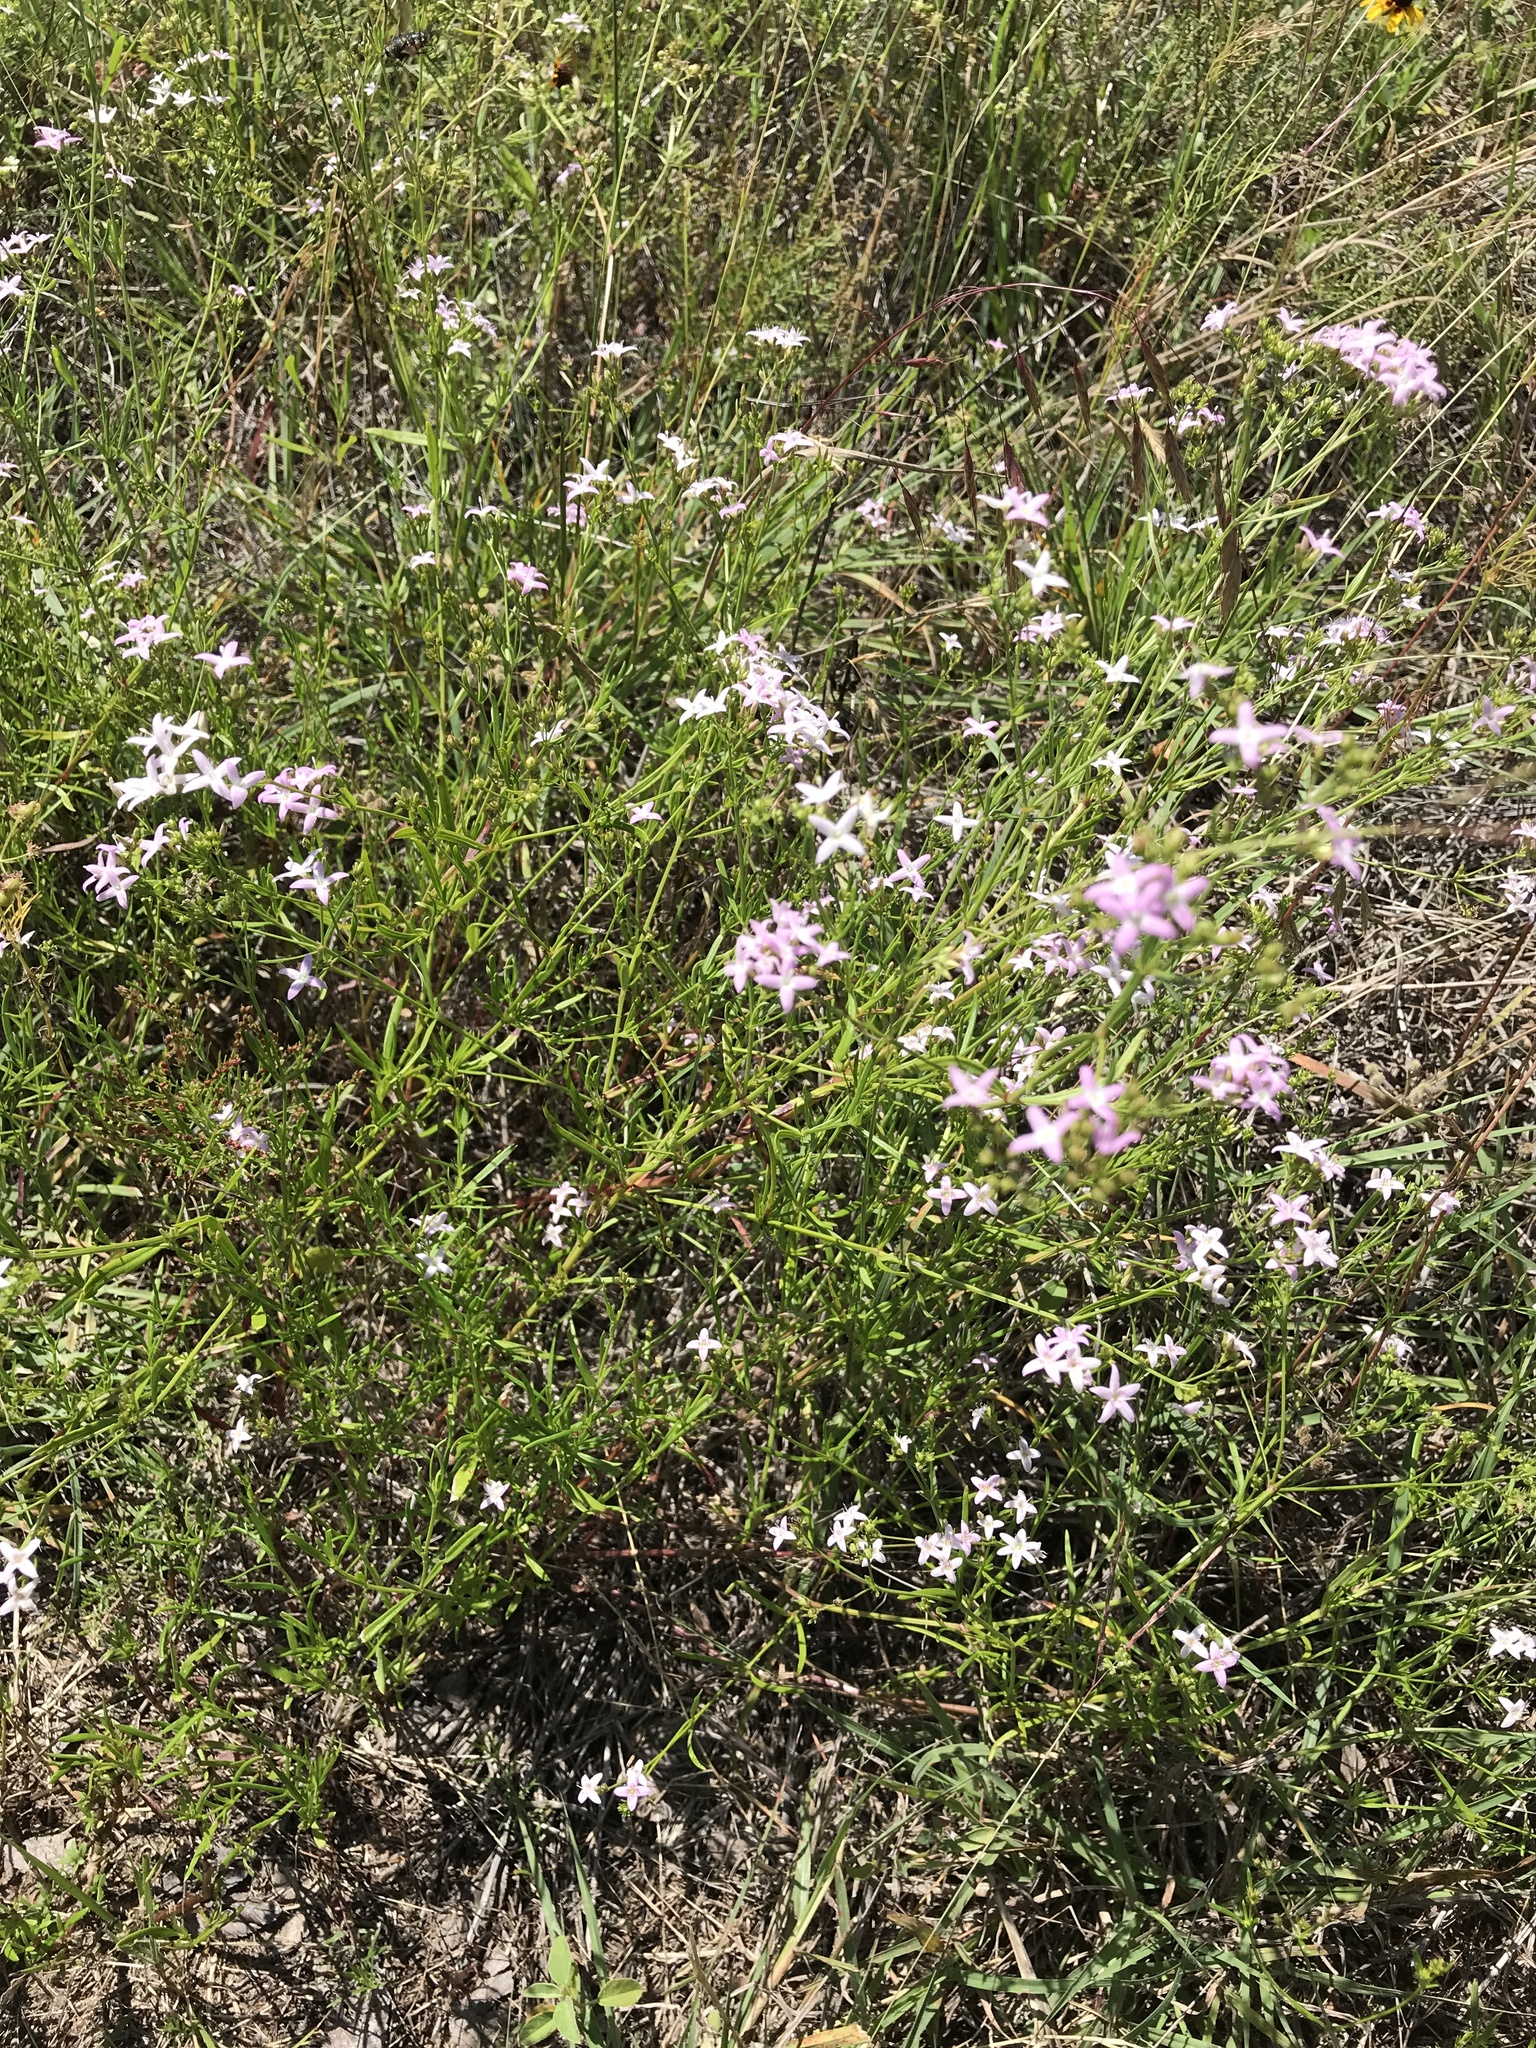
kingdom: Plantae
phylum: Tracheophyta
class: Magnoliopsida
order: Gentianales
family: Rubiaceae
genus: Stenaria
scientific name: Stenaria nigricans
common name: Diamondflowers
